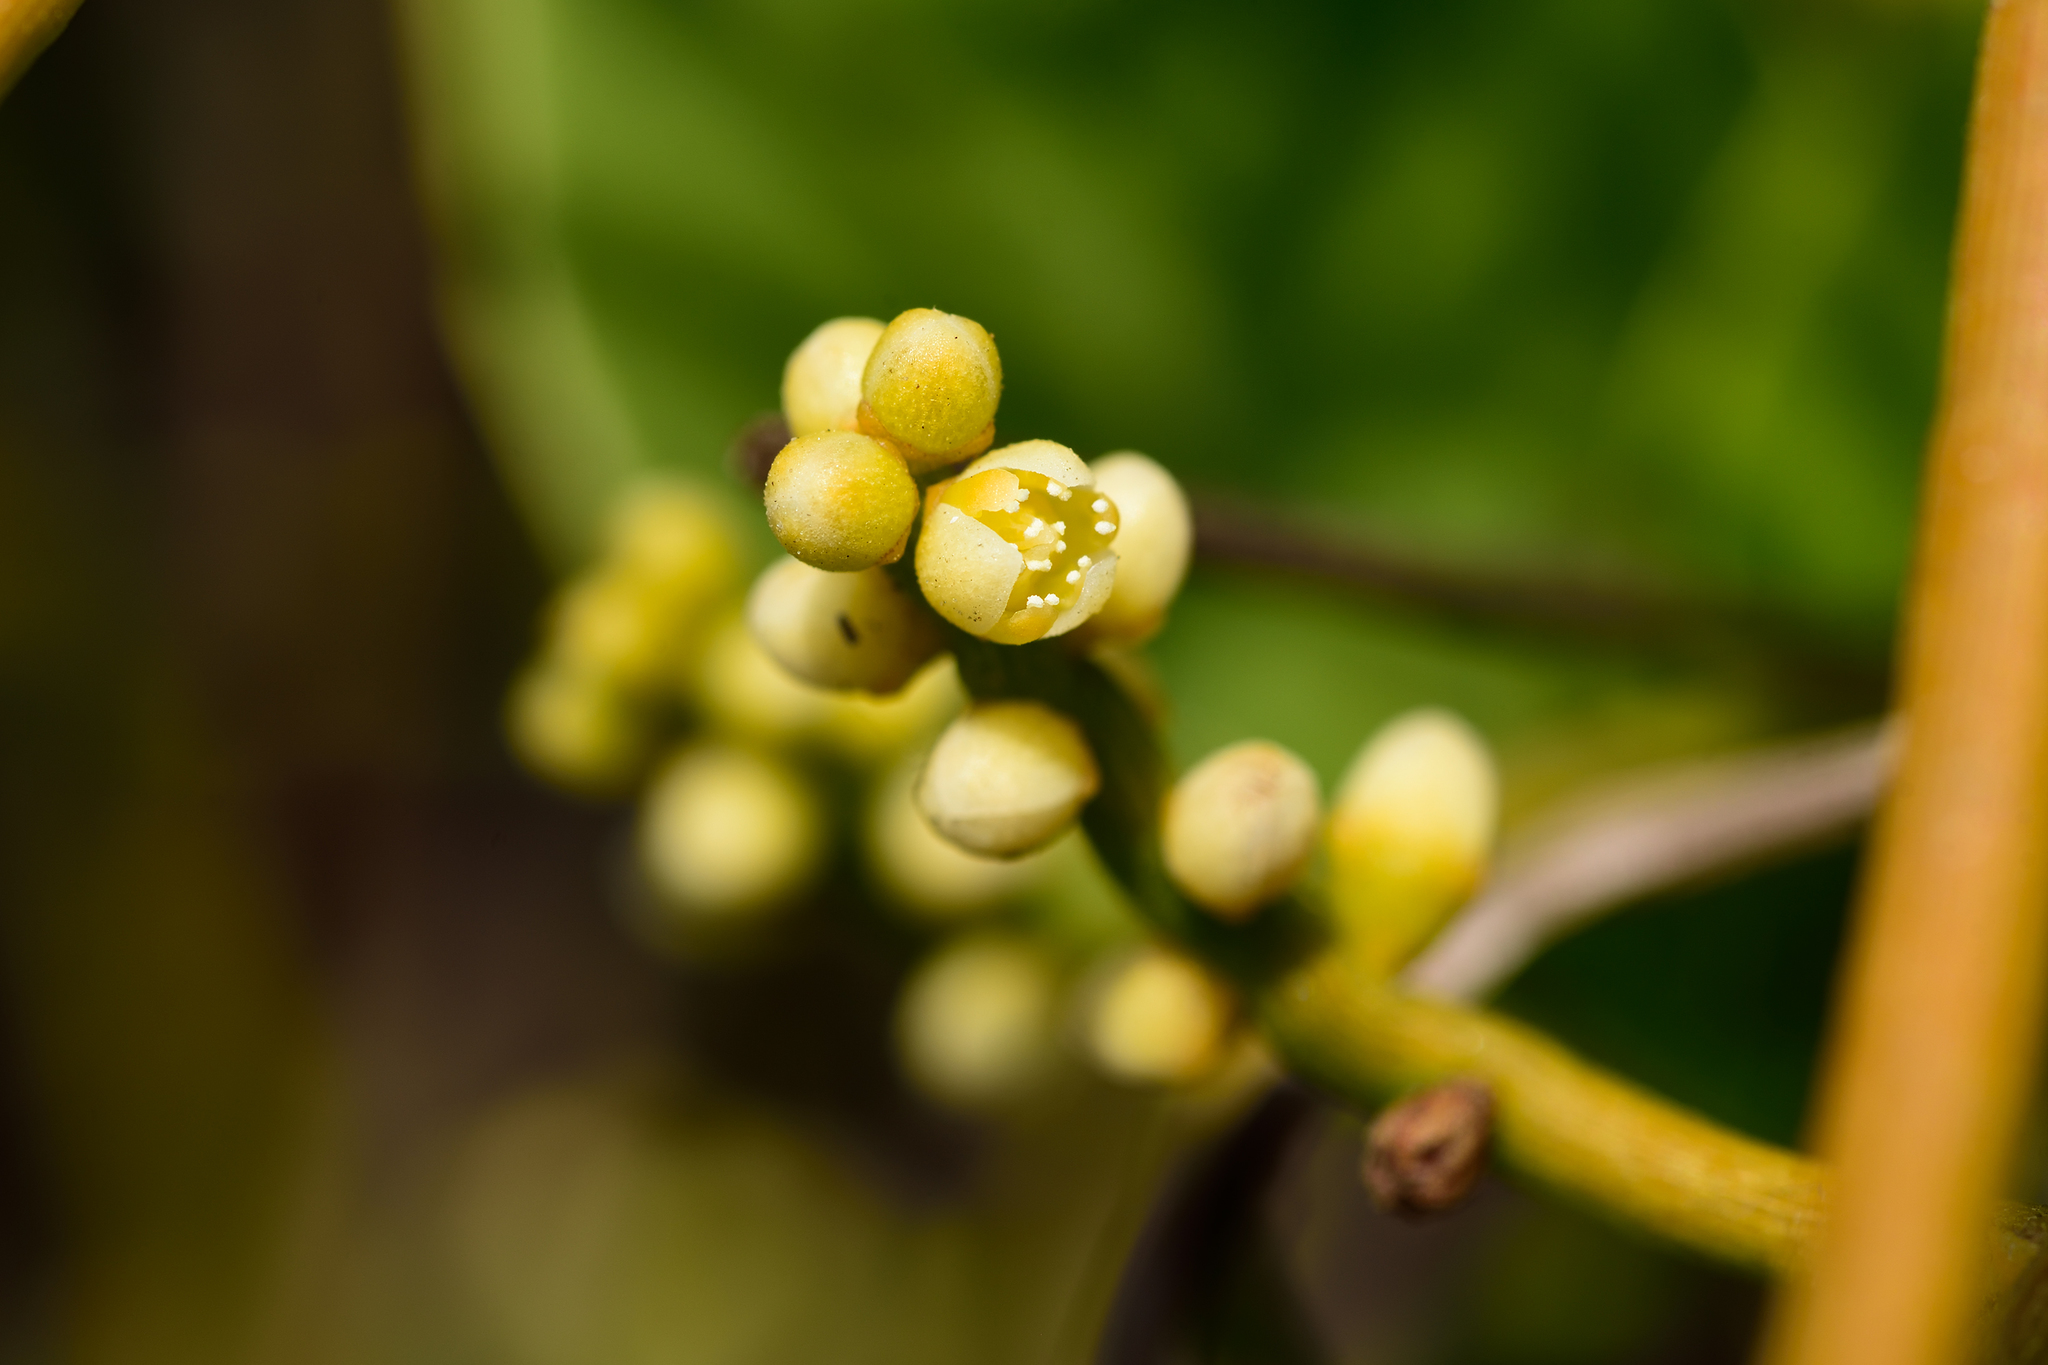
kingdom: Plantae
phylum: Tracheophyta
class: Magnoliopsida
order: Laurales
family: Lauraceae
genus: Cassytha
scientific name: Cassytha filiformis
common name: Dodder-laurel
